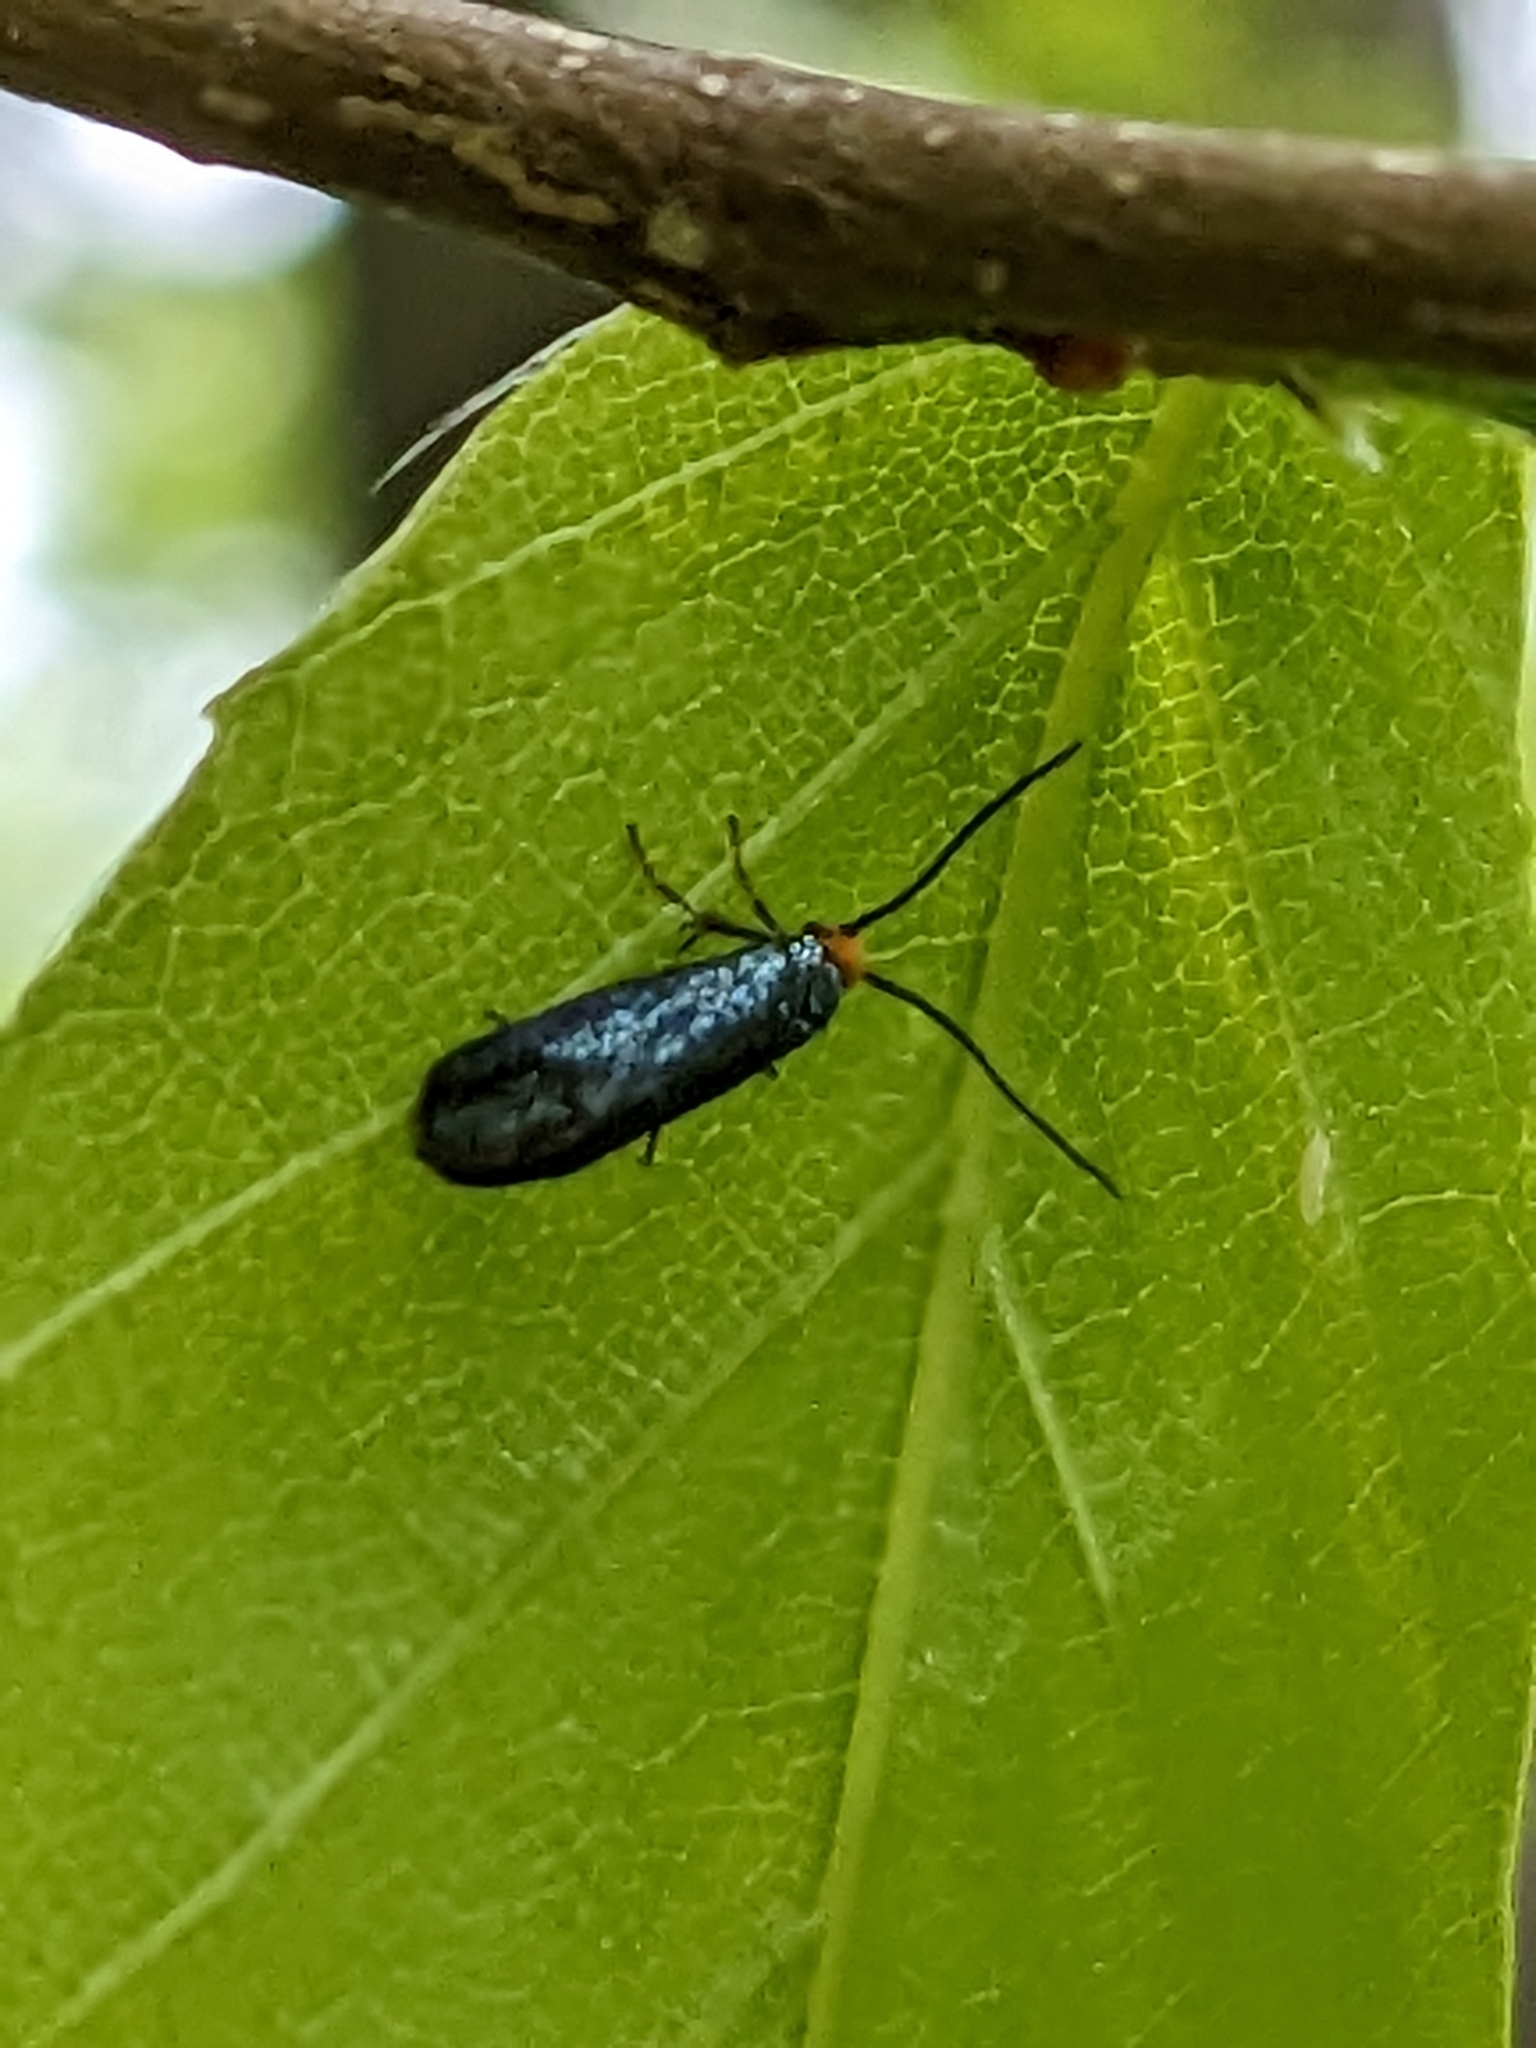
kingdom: Animalia
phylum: Arthropoda
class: Insecta
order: Lepidoptera
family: Incurvariidae
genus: Paraclemensia
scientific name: Paraclemensia acerifoliella
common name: Maple leafcutter
